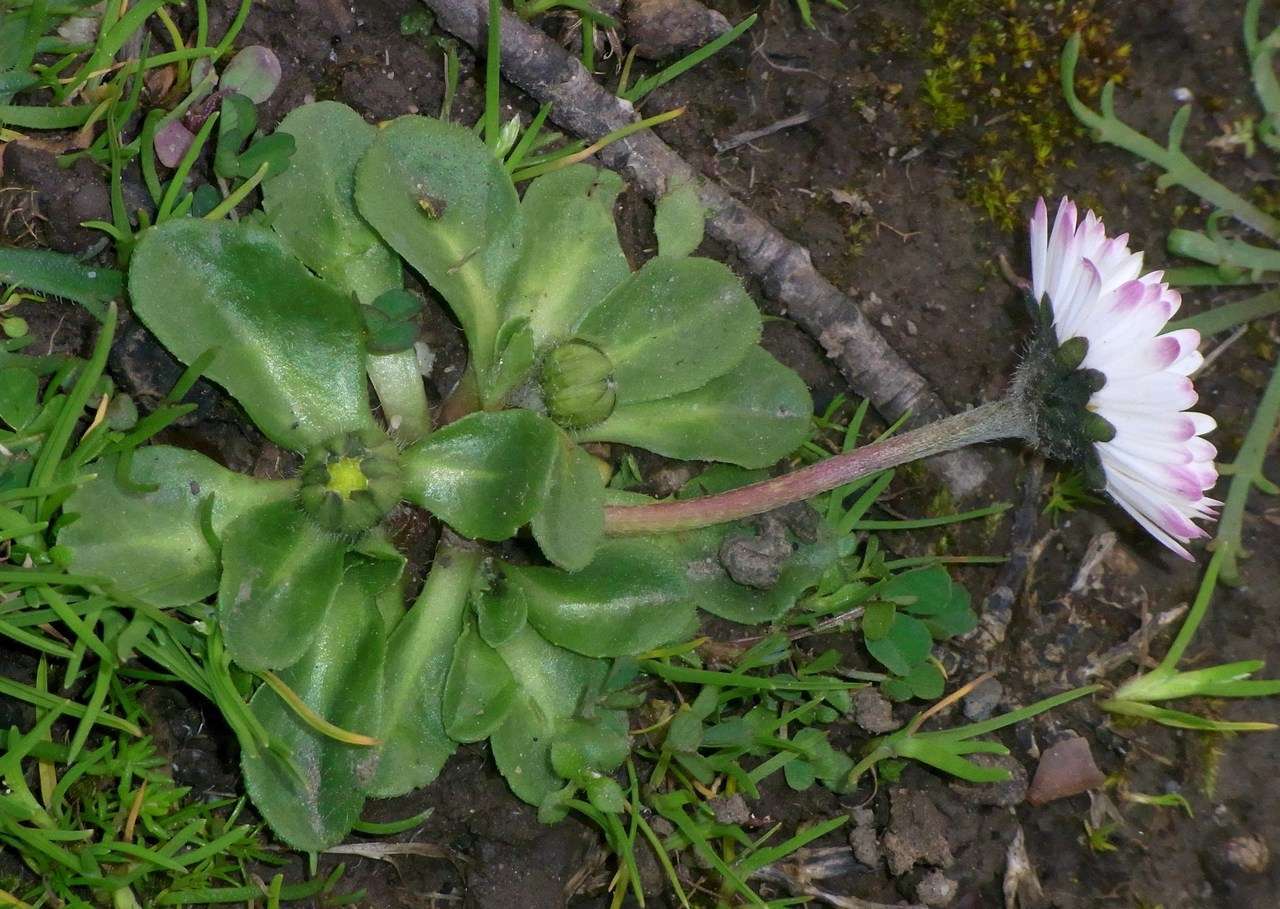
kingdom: Plantae
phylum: Tracheophyta
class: Magnoliopsida
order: Asterales
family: Asteraceae
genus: Bellis
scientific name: Bellis perennis
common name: Lawndaisy
